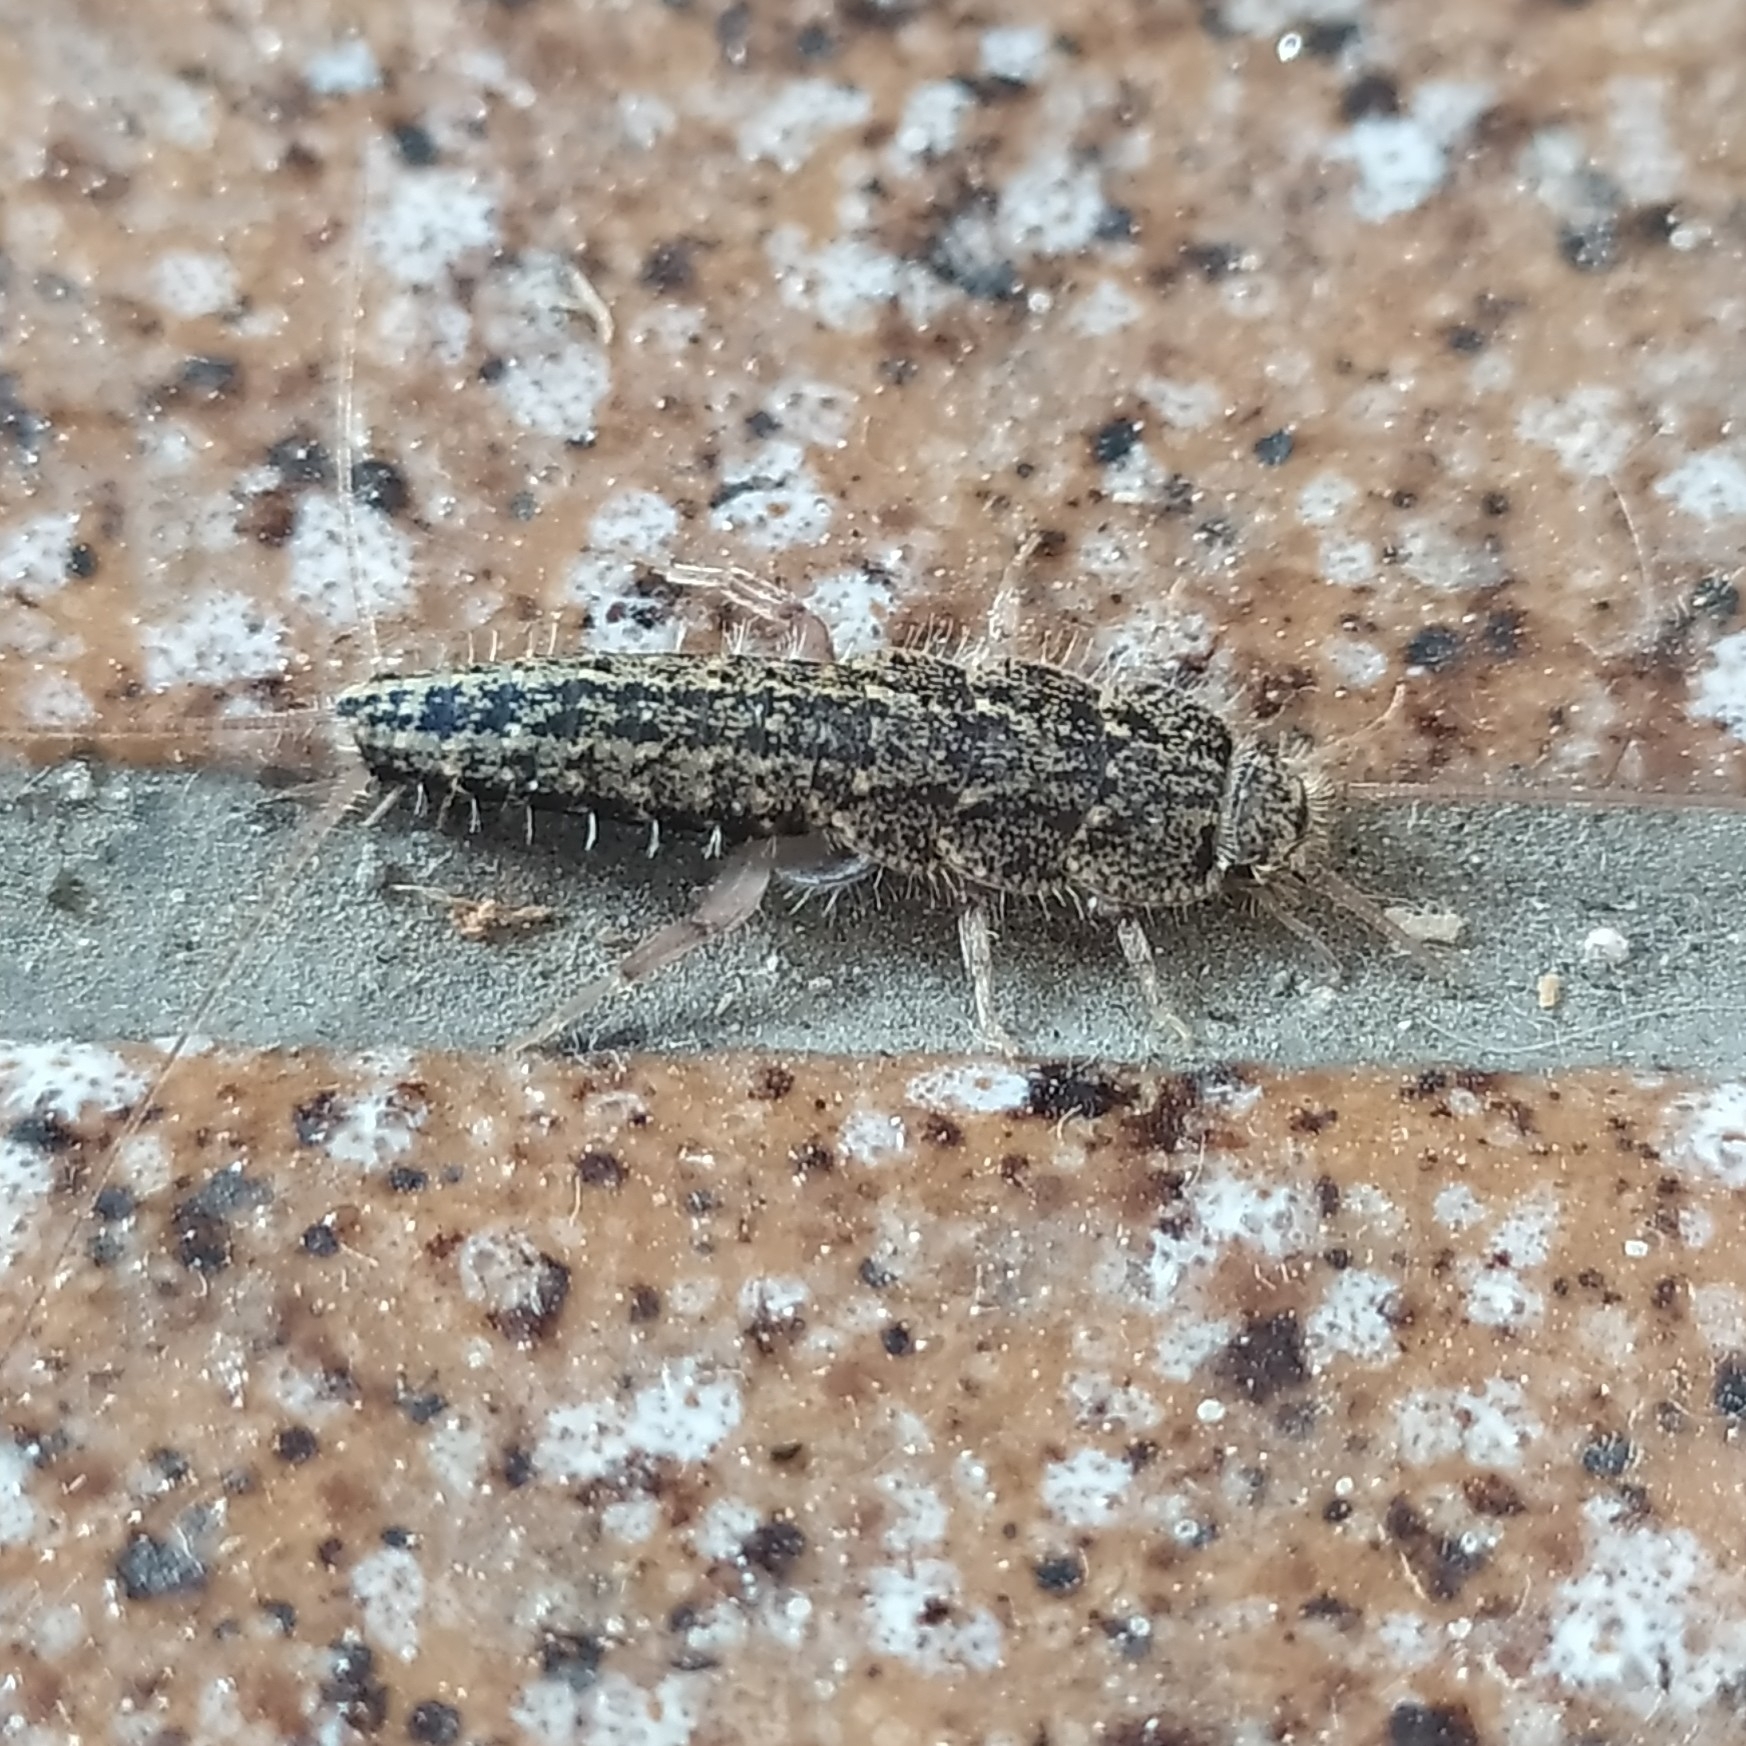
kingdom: Animalia
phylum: Arthropoda
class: Insecta
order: Zygentoma
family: Lepismatidae
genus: Ctenolepisma
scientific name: Ctenolepisma lineata
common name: Four-lined silverfish
